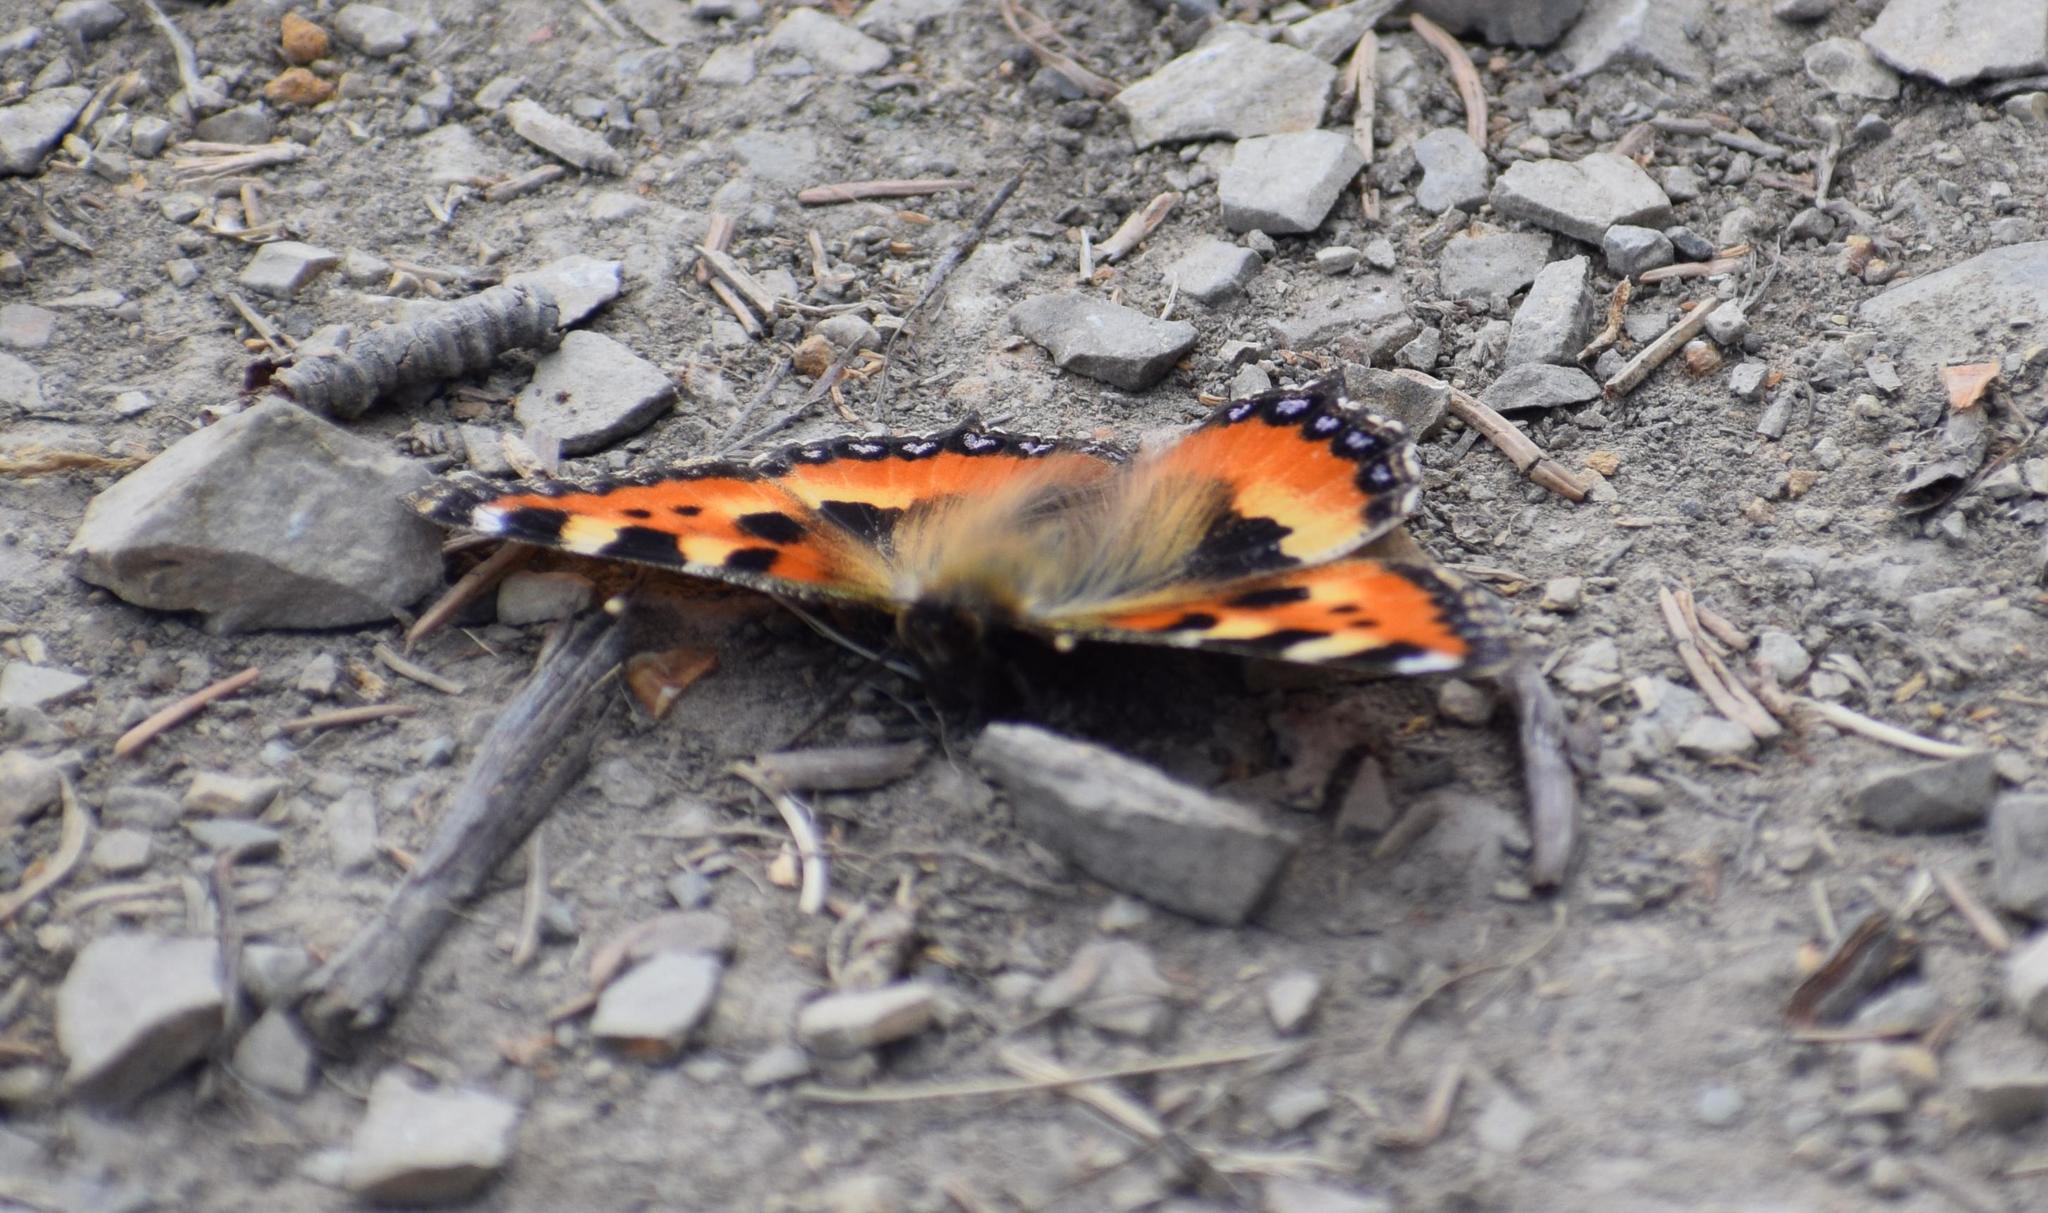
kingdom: Animalia
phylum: Arthropoda
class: Insecta
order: Lepidoptera
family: Nymphalidae
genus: Aglais
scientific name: Aglais urticae
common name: Small tortoiseshell
